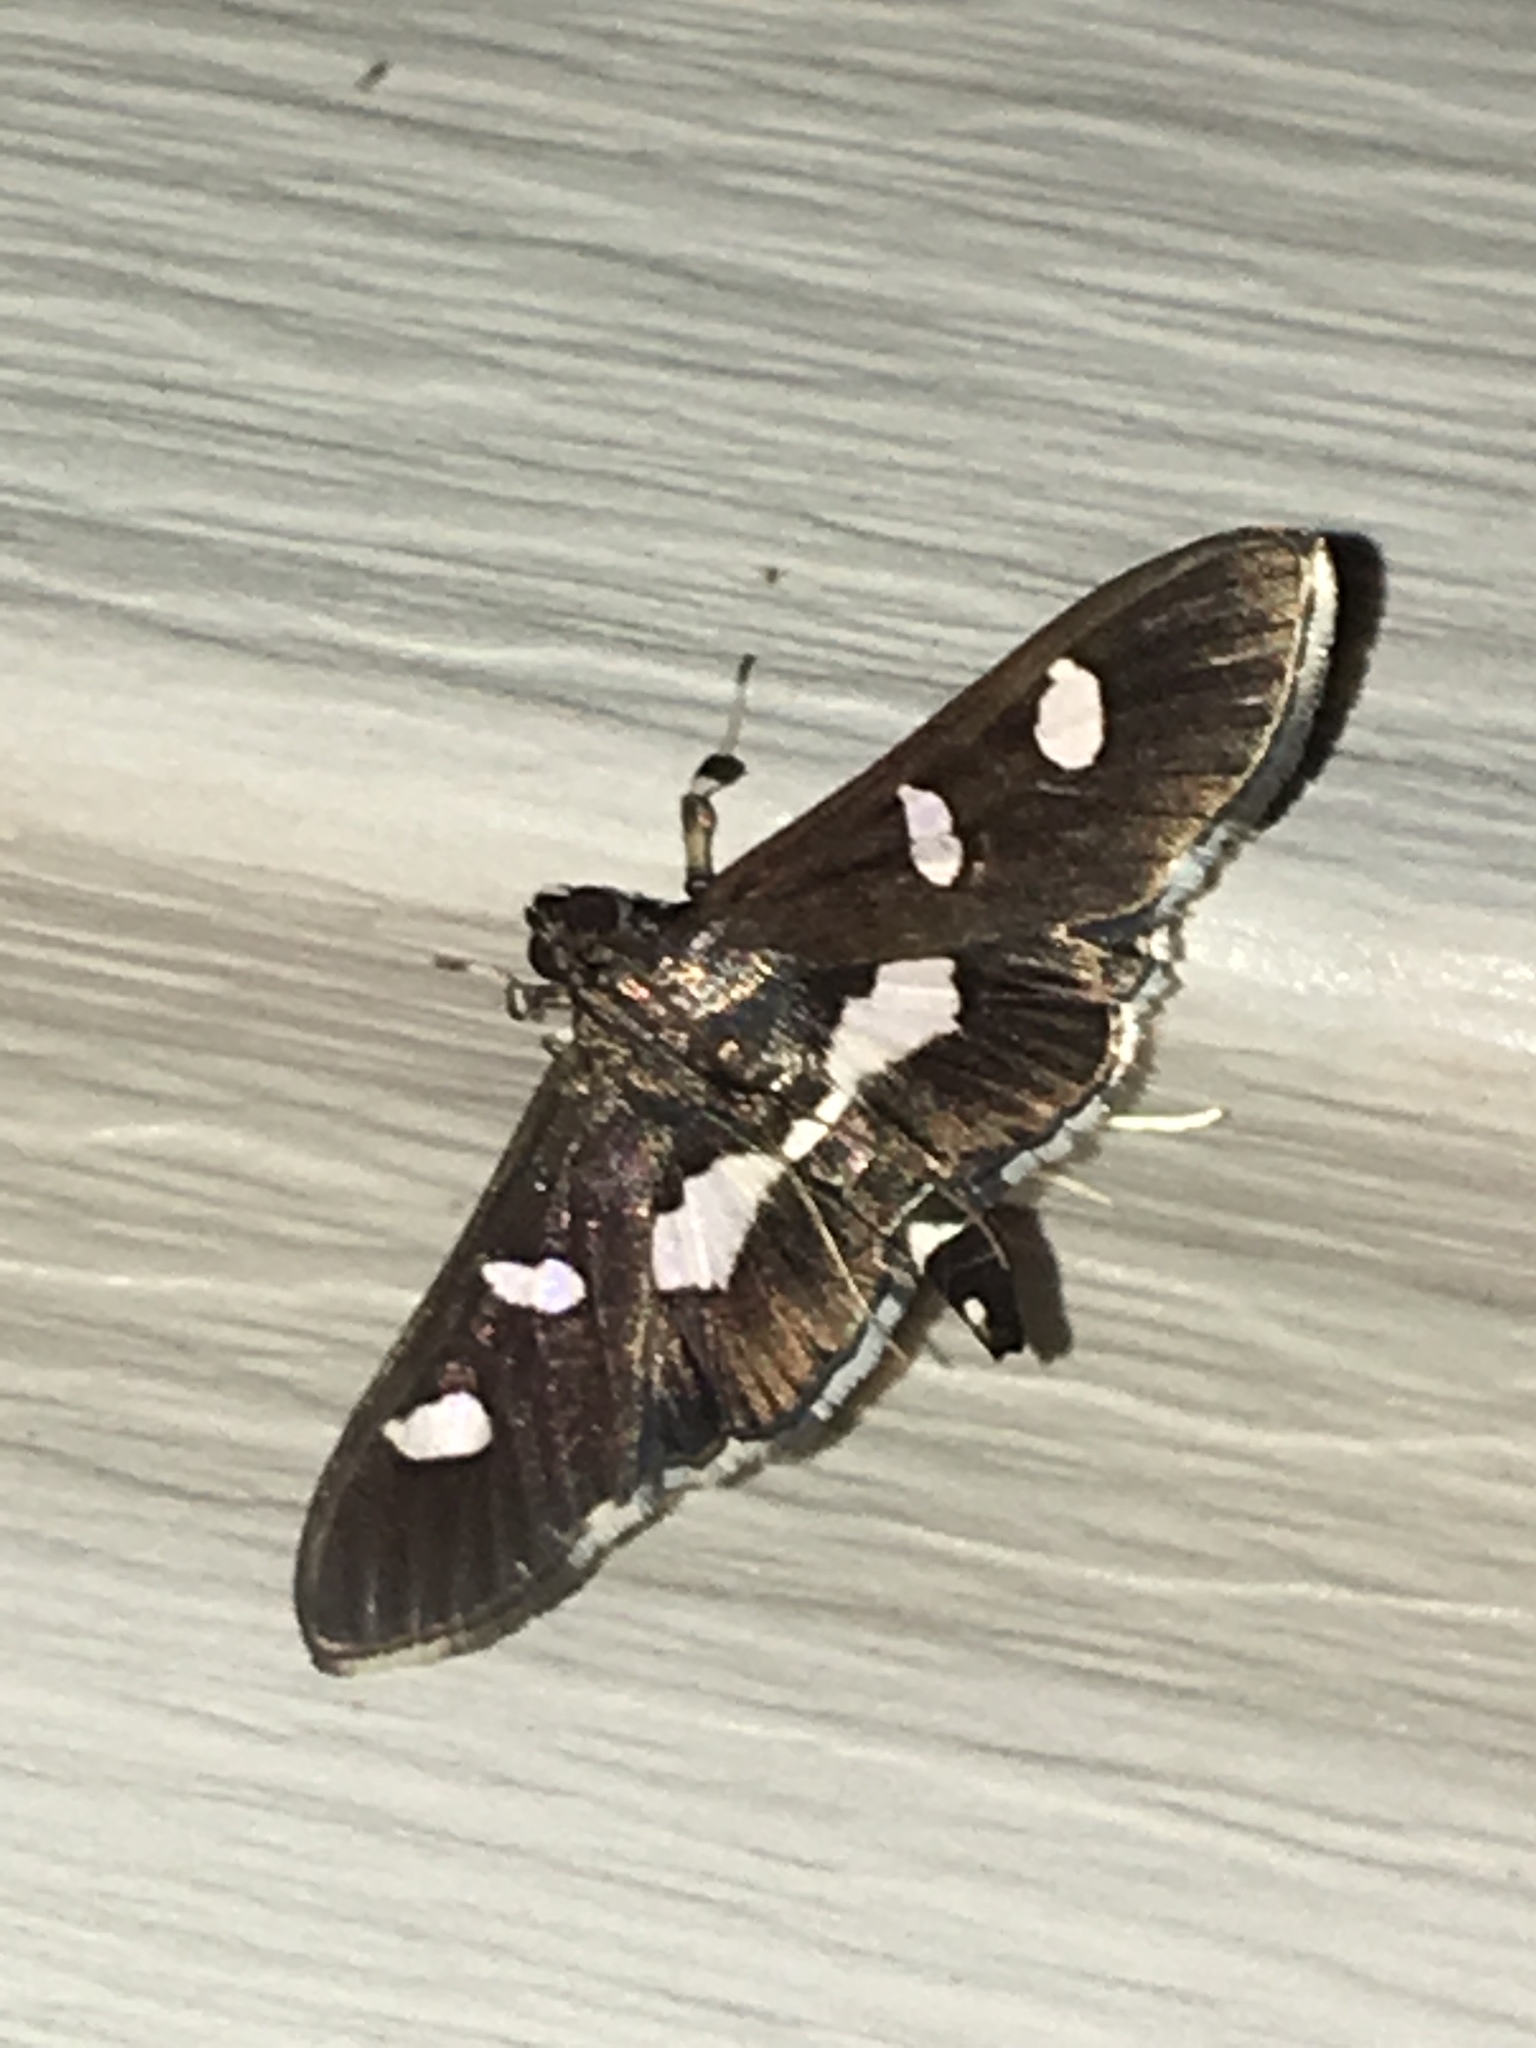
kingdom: Animalia
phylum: Arthropoda
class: Insecta
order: Lepidoptera
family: Crambidae
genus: Desmia
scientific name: Desmia
